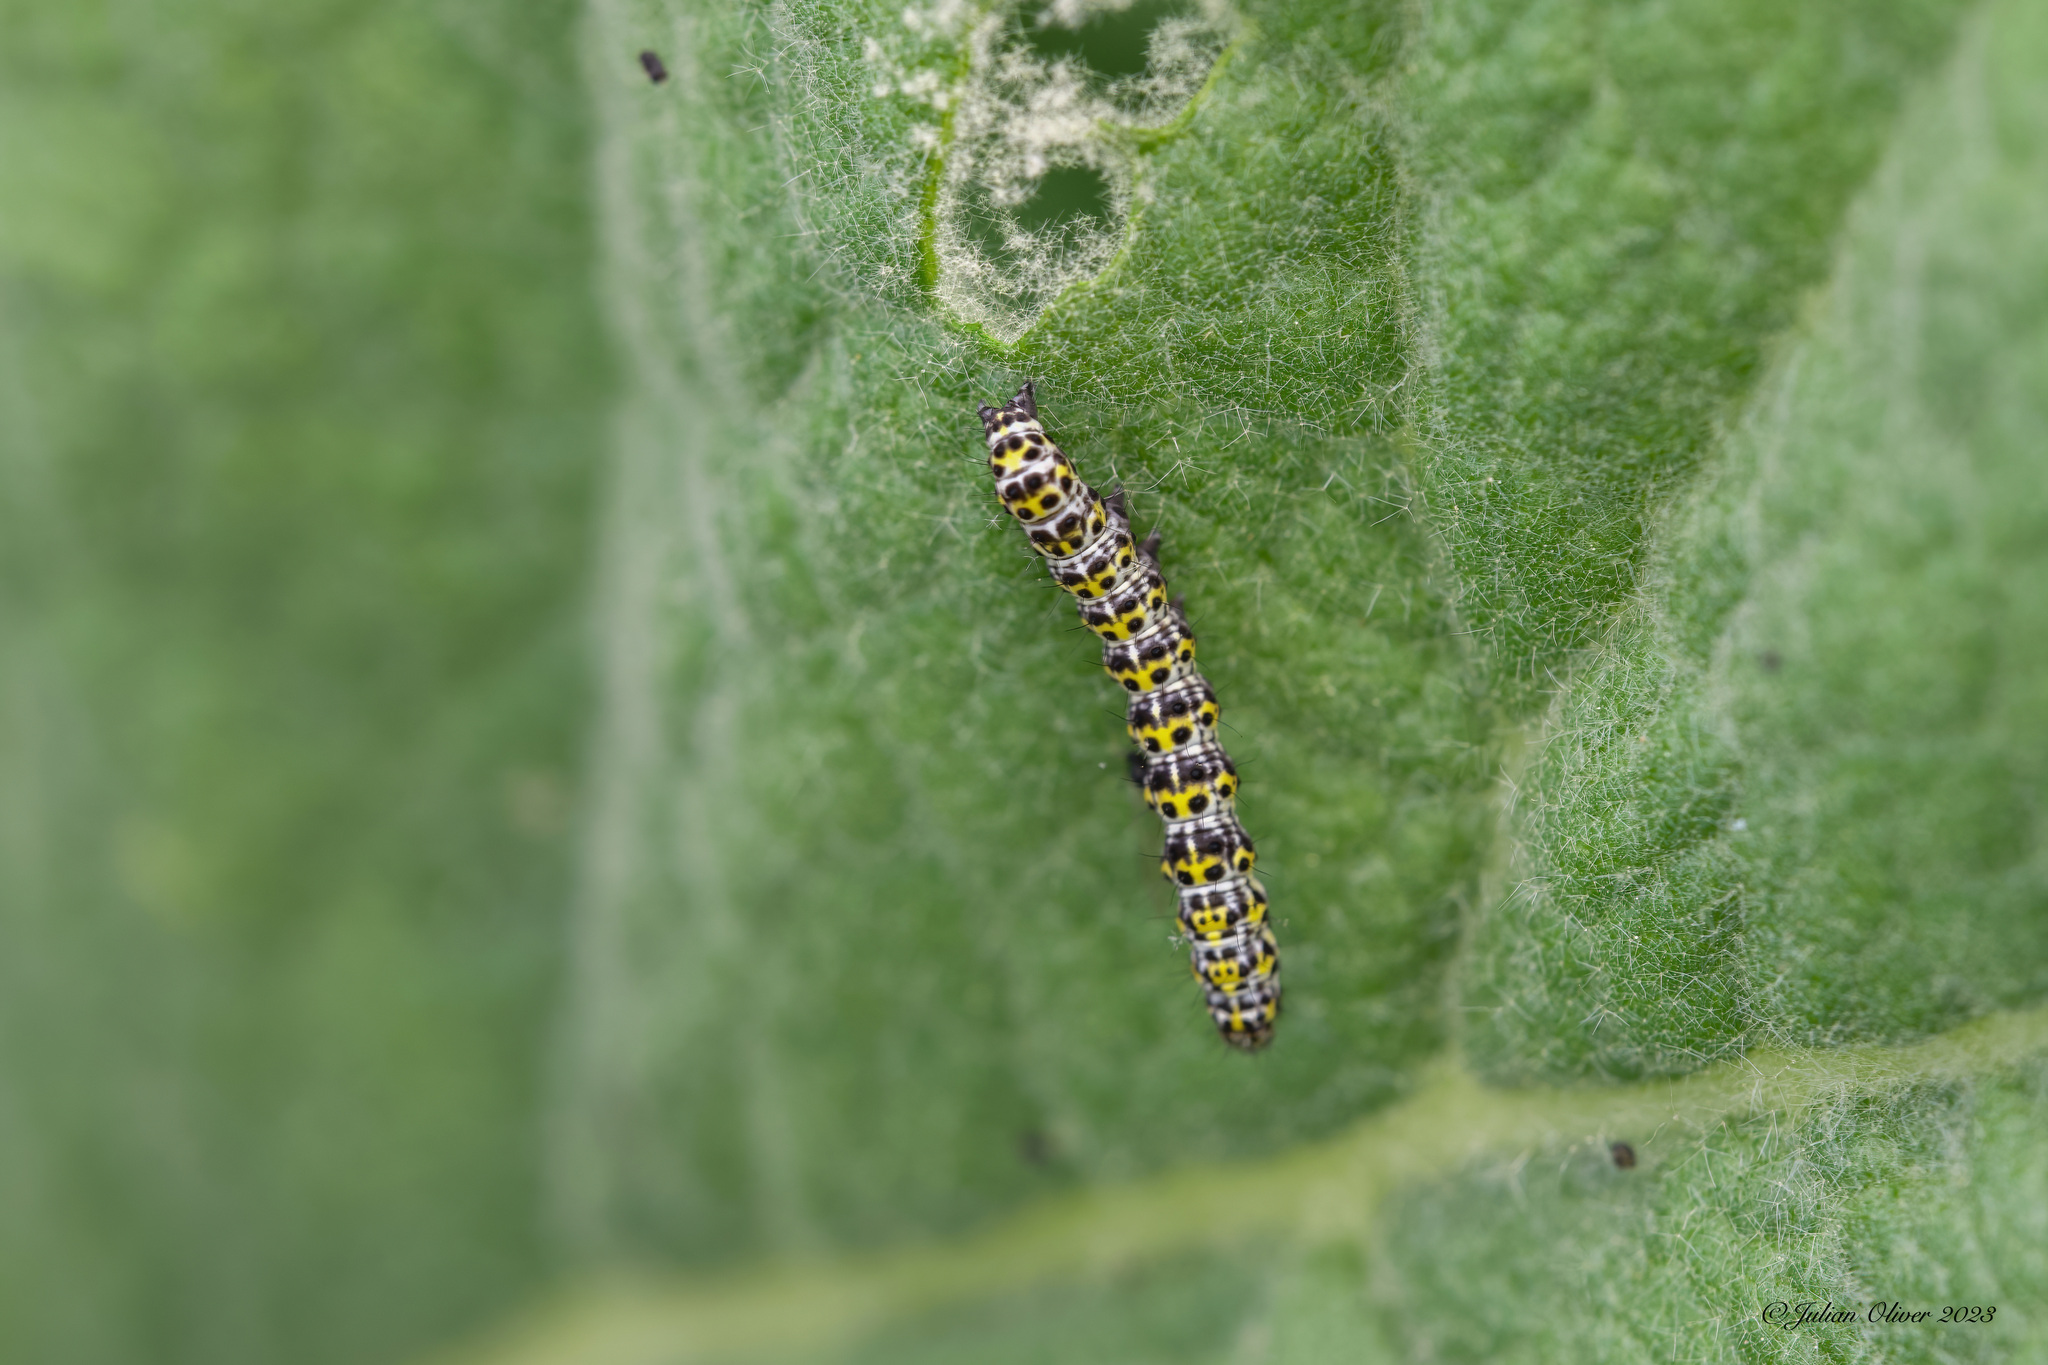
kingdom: Animalia
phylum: Arthropoda
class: Insecta
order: Lepidoptera
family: Noctuidae
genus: Cucullia
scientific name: Cucullia verbasci
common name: Mullein
